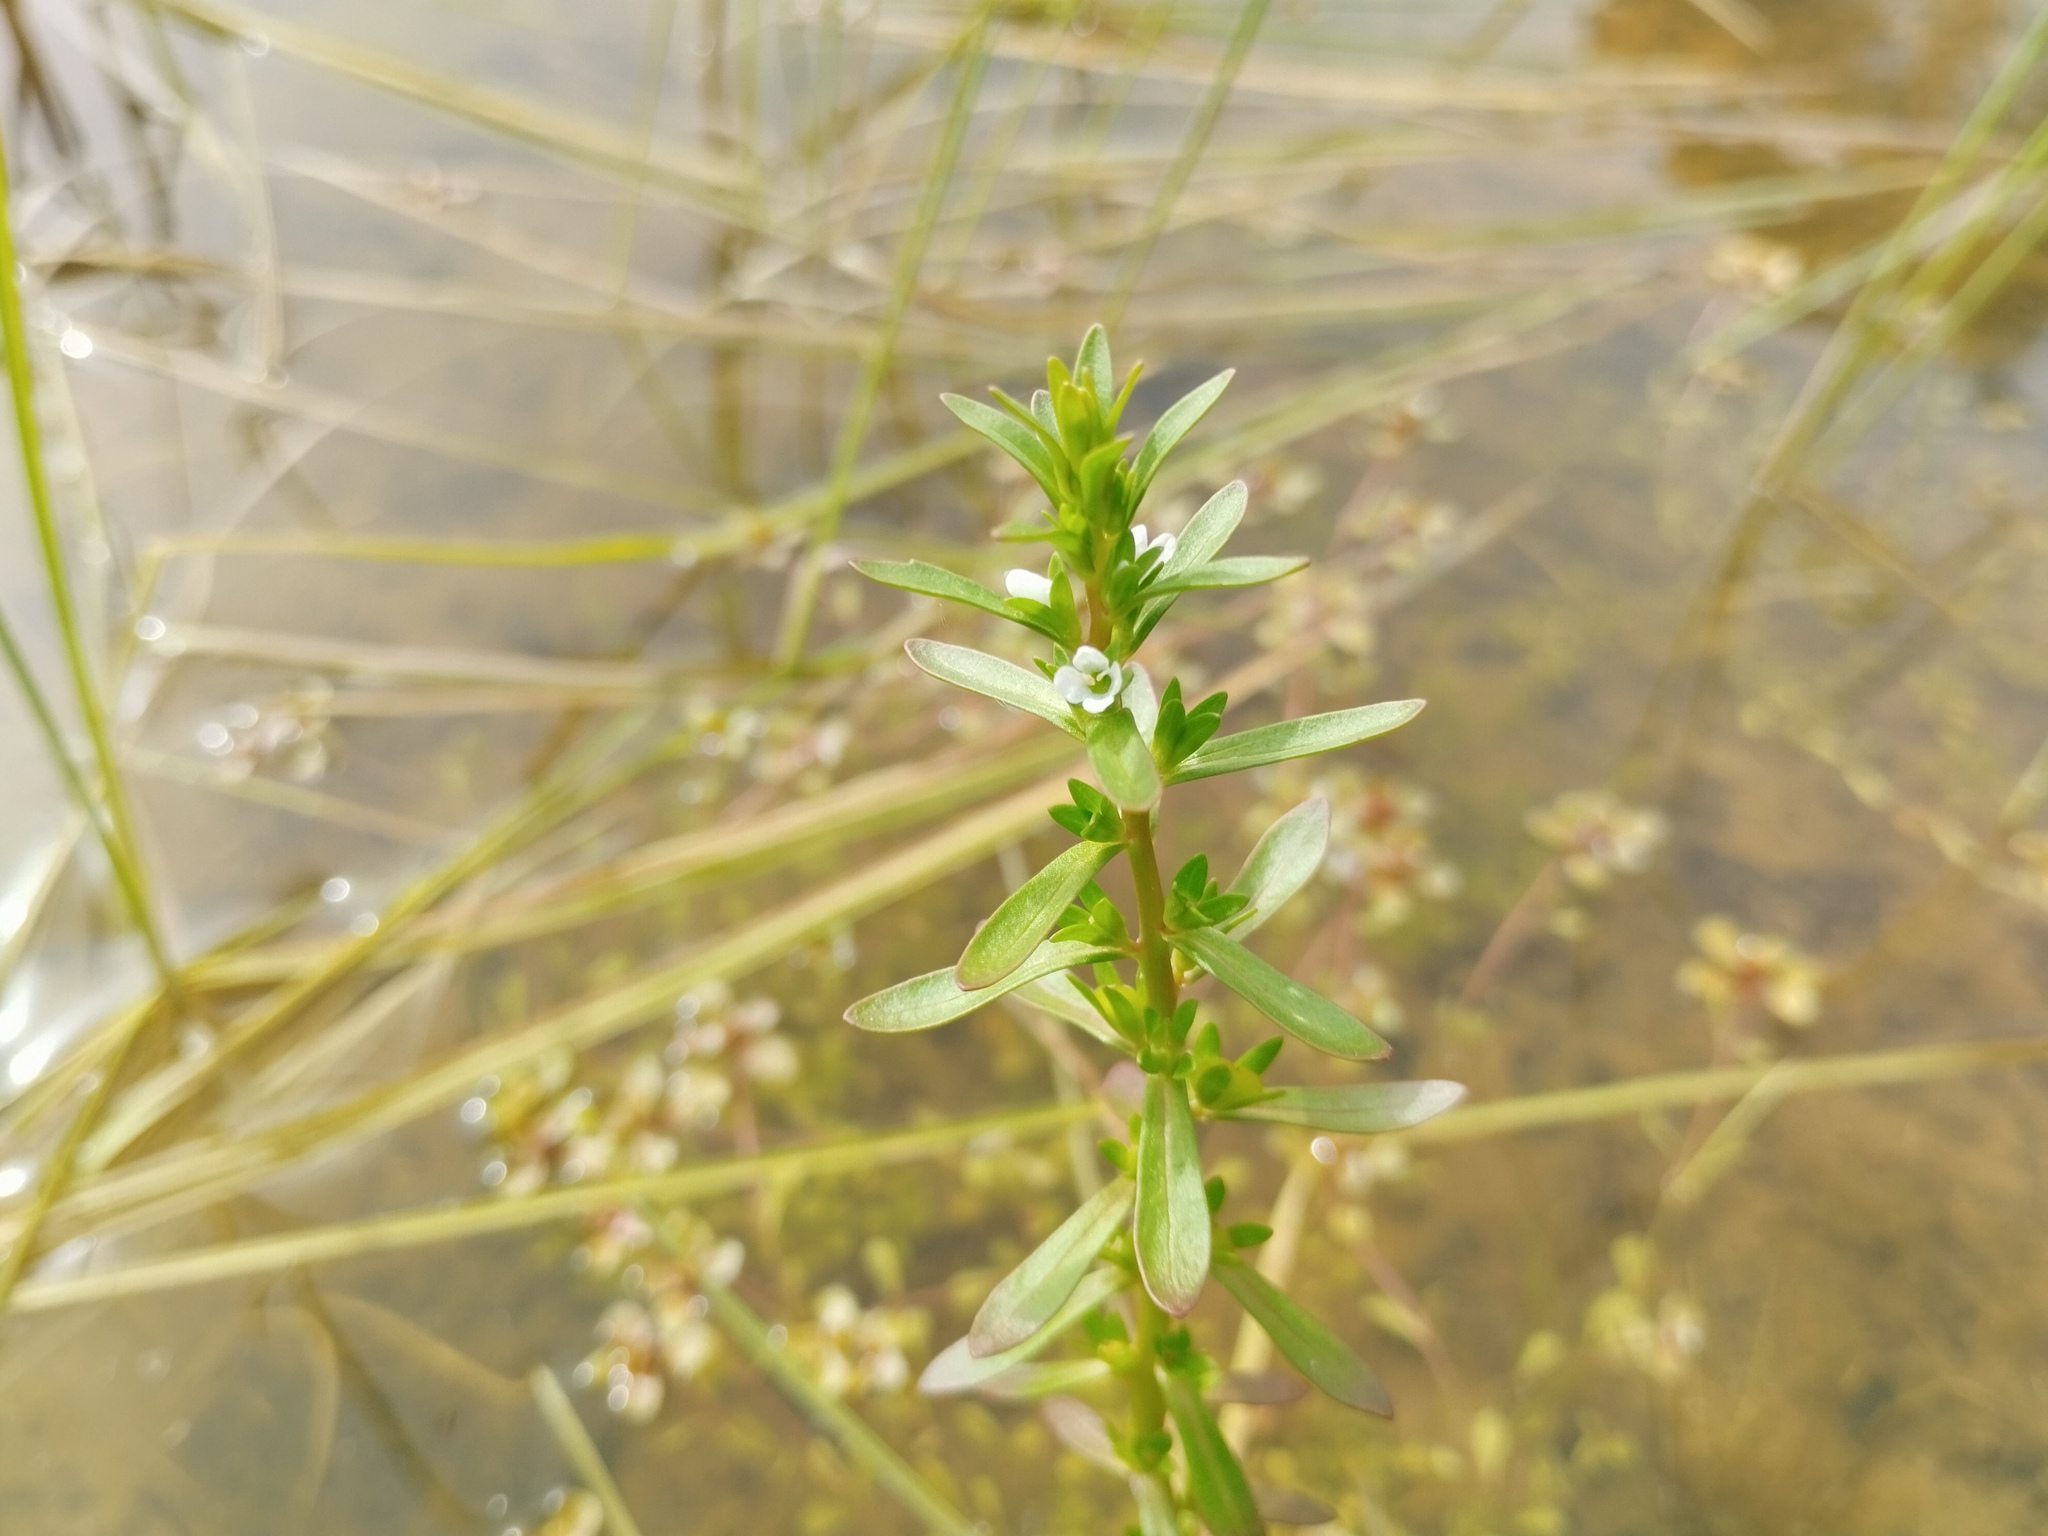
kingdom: Plantae
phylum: Tracheophyta
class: Magnoliopsida
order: Lamiales
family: Plantaginaceae
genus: Veronica
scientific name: Veronica peregrina
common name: Neckweed
